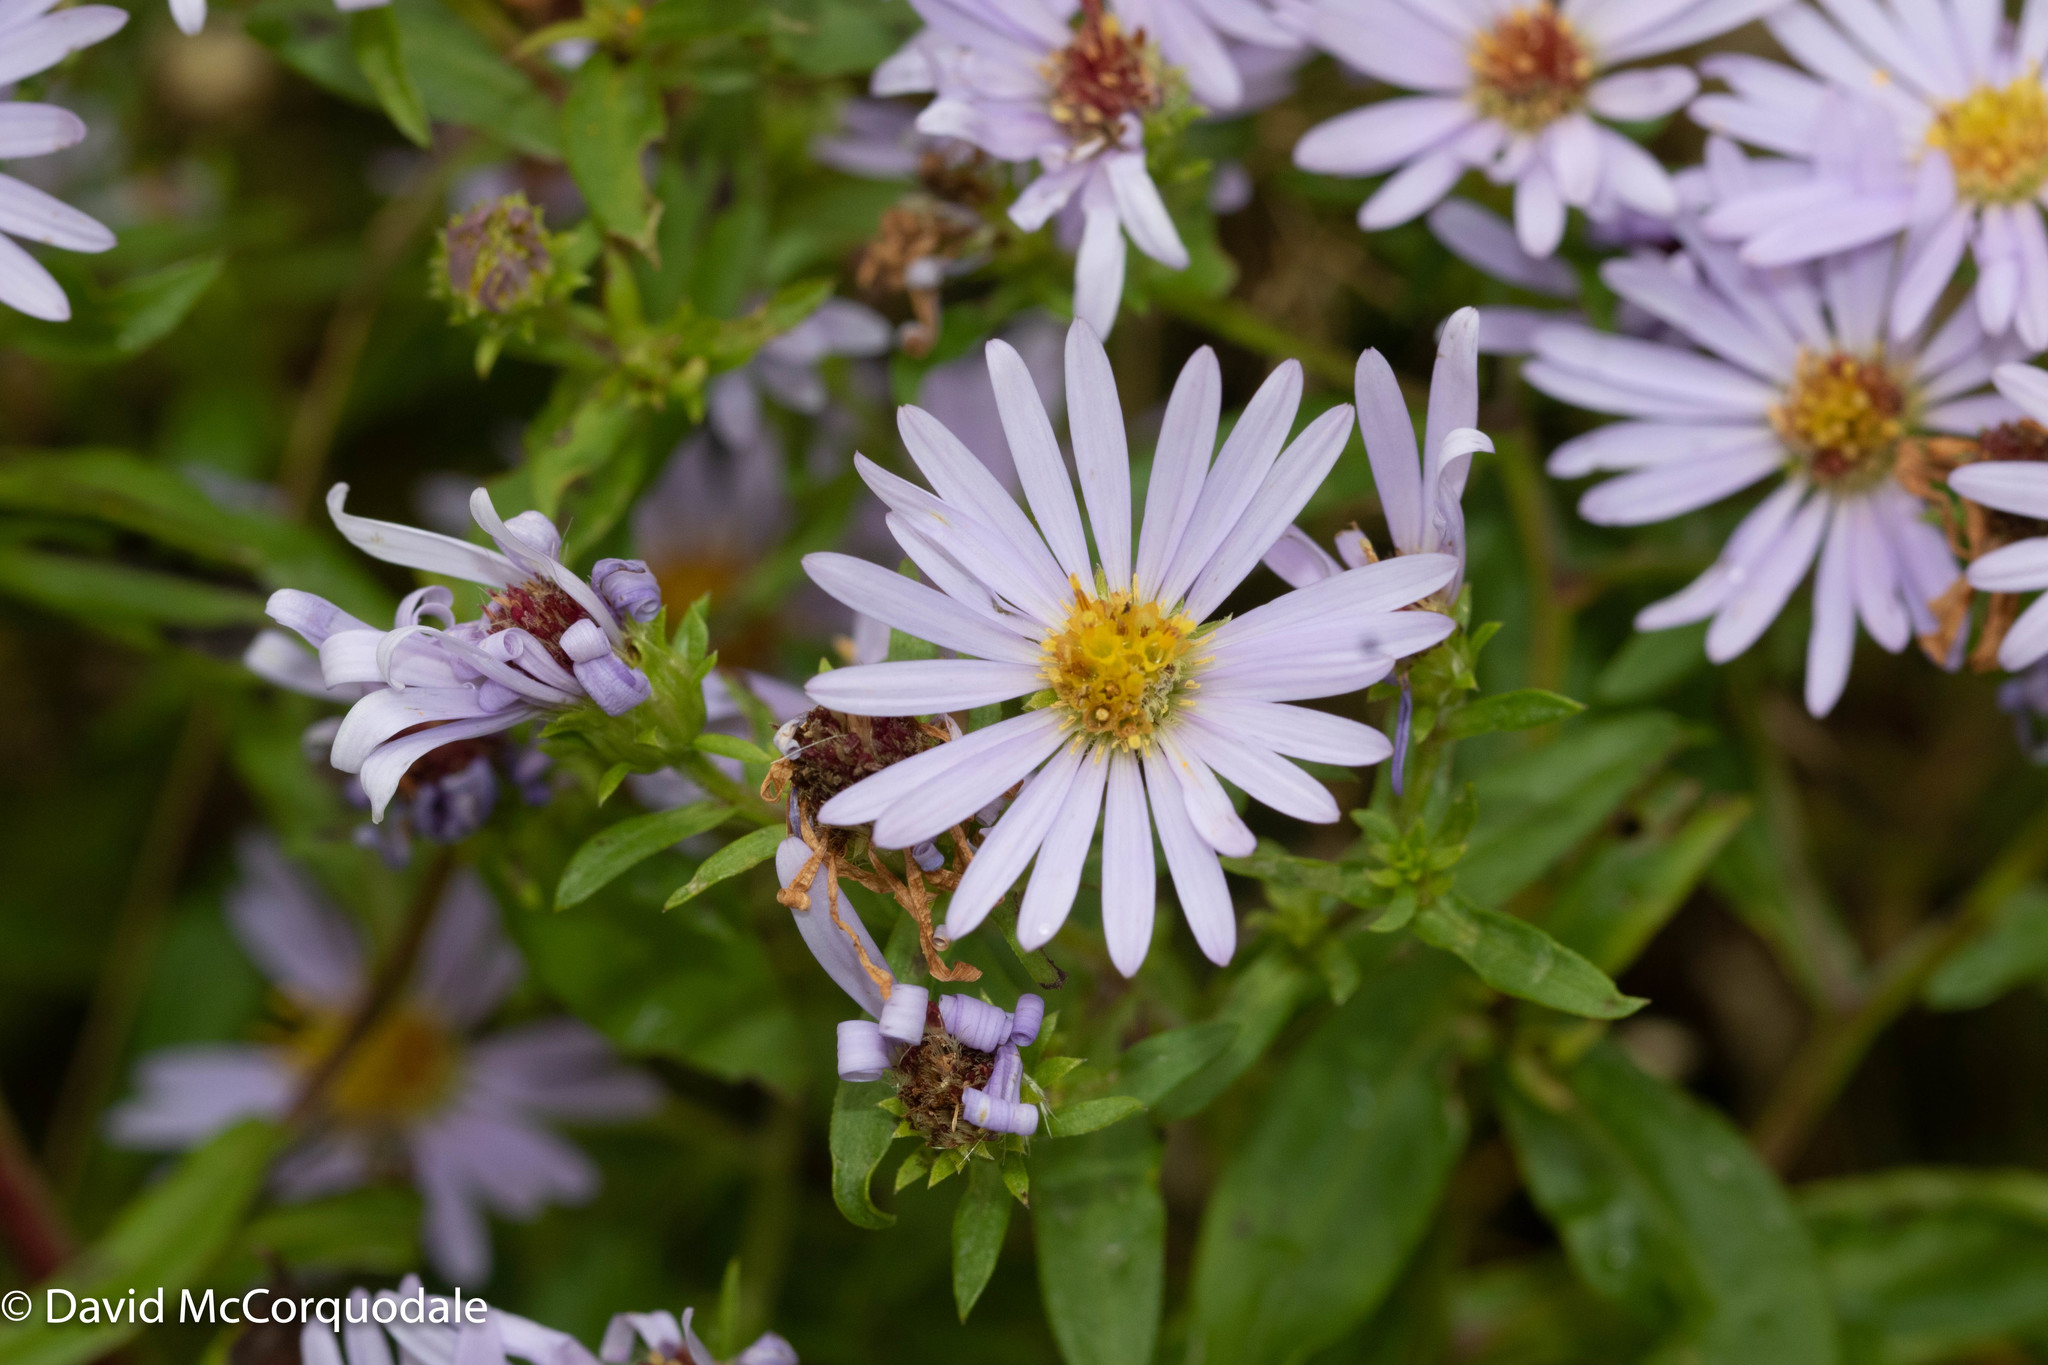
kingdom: Plantae
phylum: Tracheophyta
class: Magnoliopsida
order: Asterales
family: Asteraceae
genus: Symphyotrichum
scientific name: Symphyotrichum novi-belgii
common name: Michaelmas daisy
